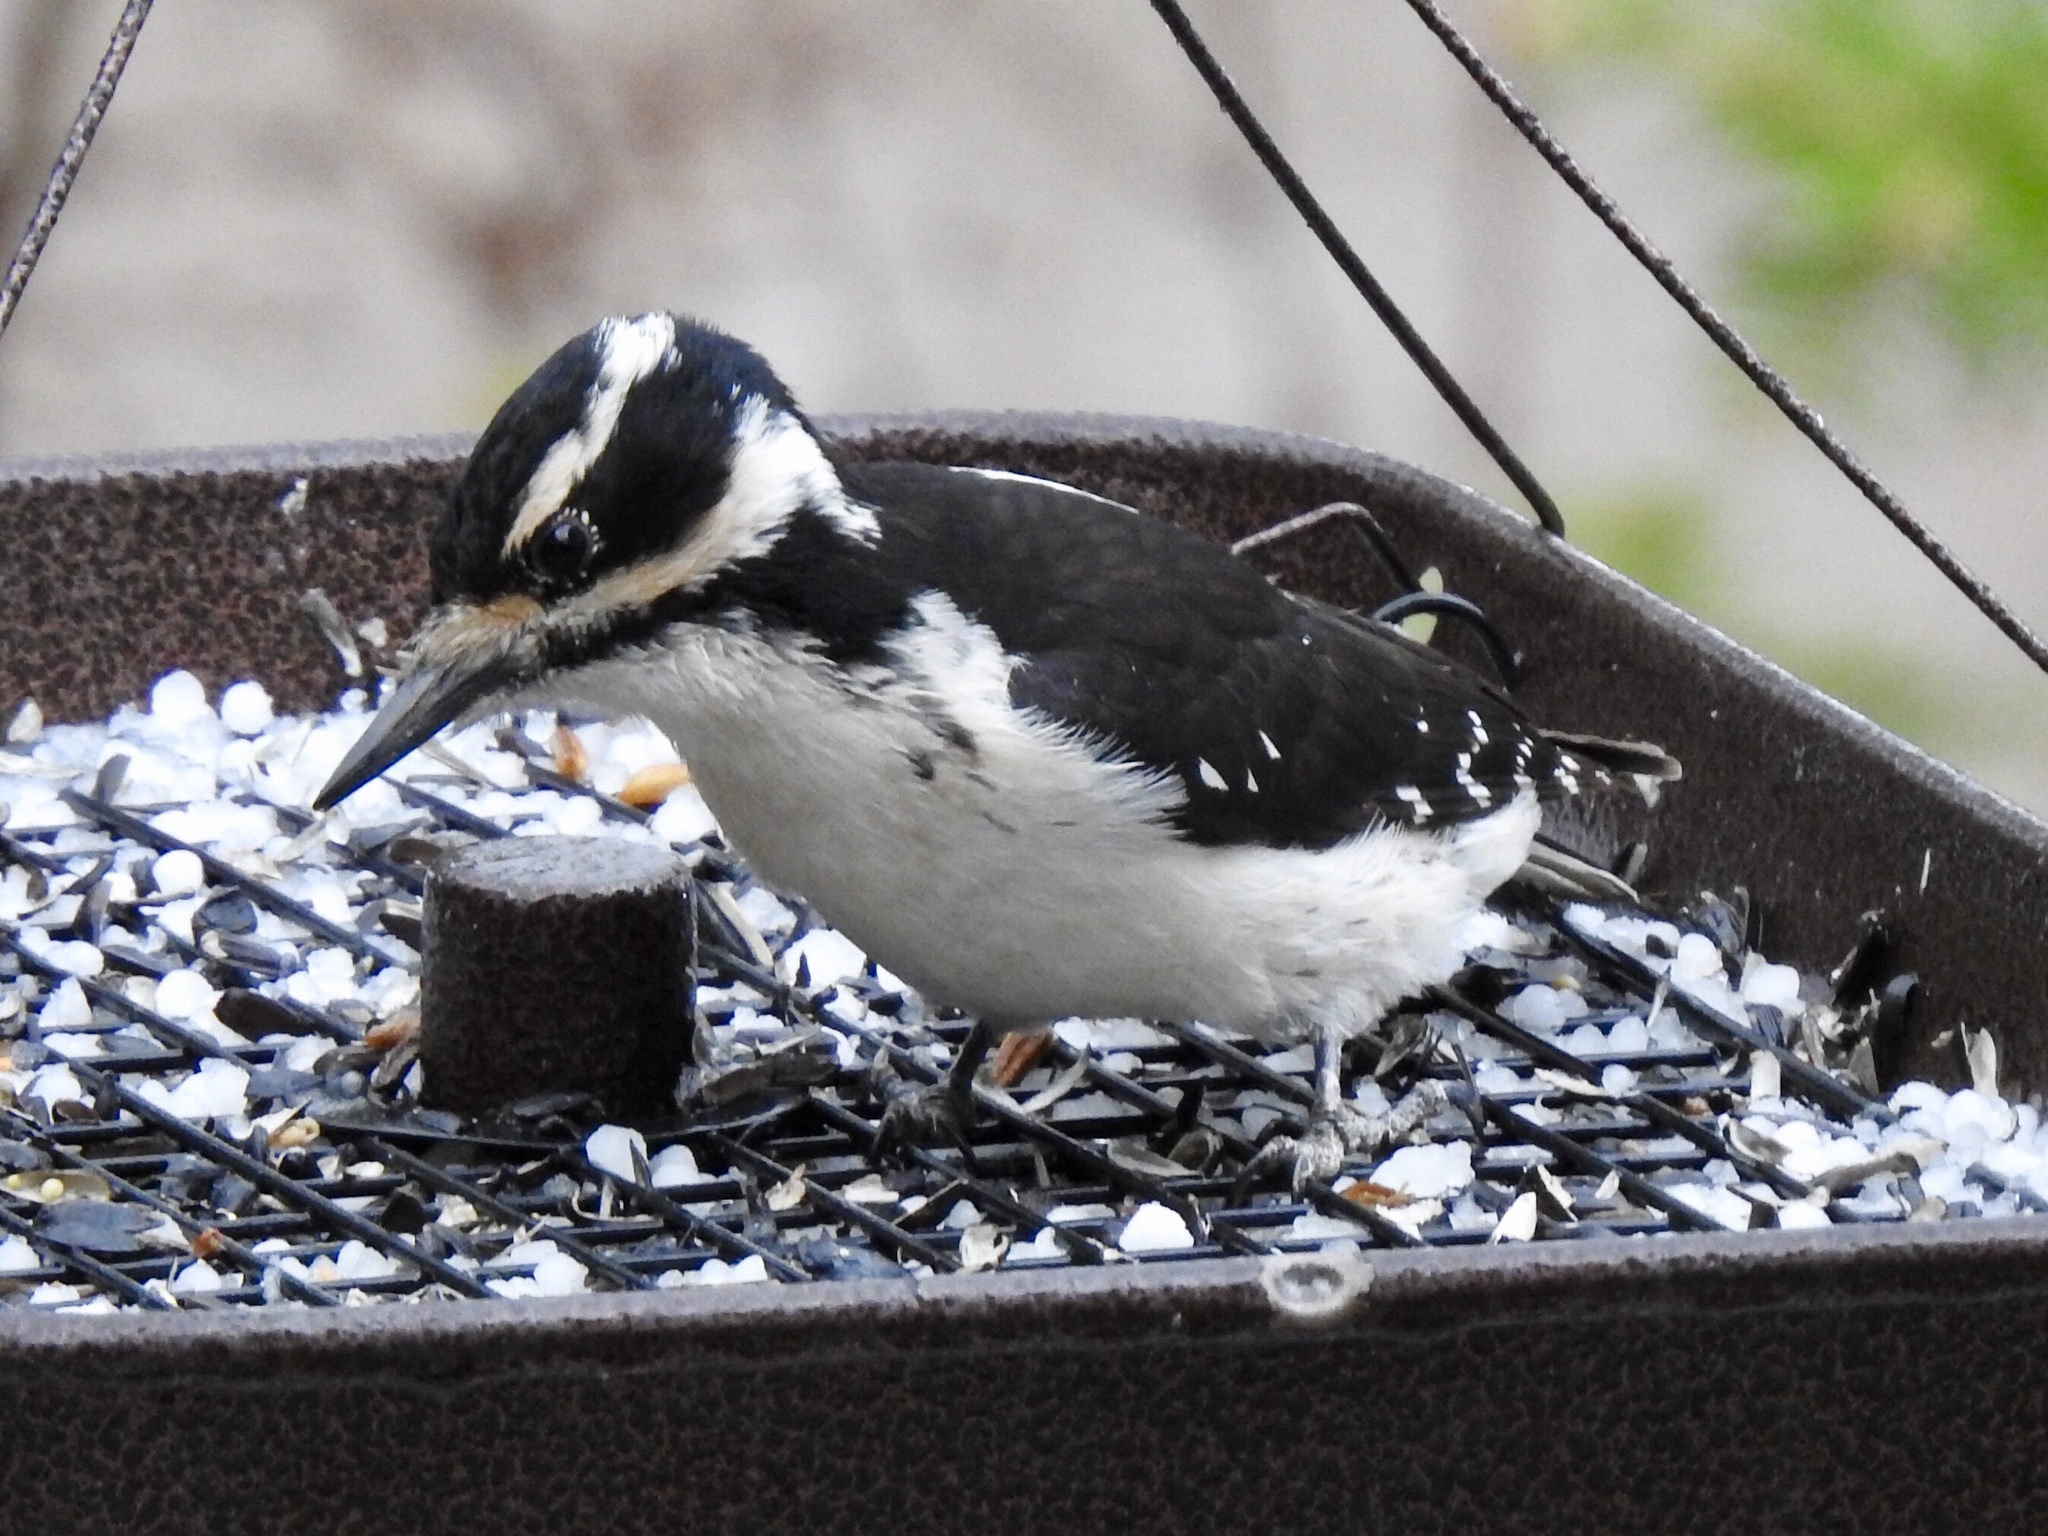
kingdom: Animalia
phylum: Chordata
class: Aves
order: Piciformes
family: Picidae
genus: Leuconotopicus
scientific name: Leuconotopicus villosus
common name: Hairy woodpecker
